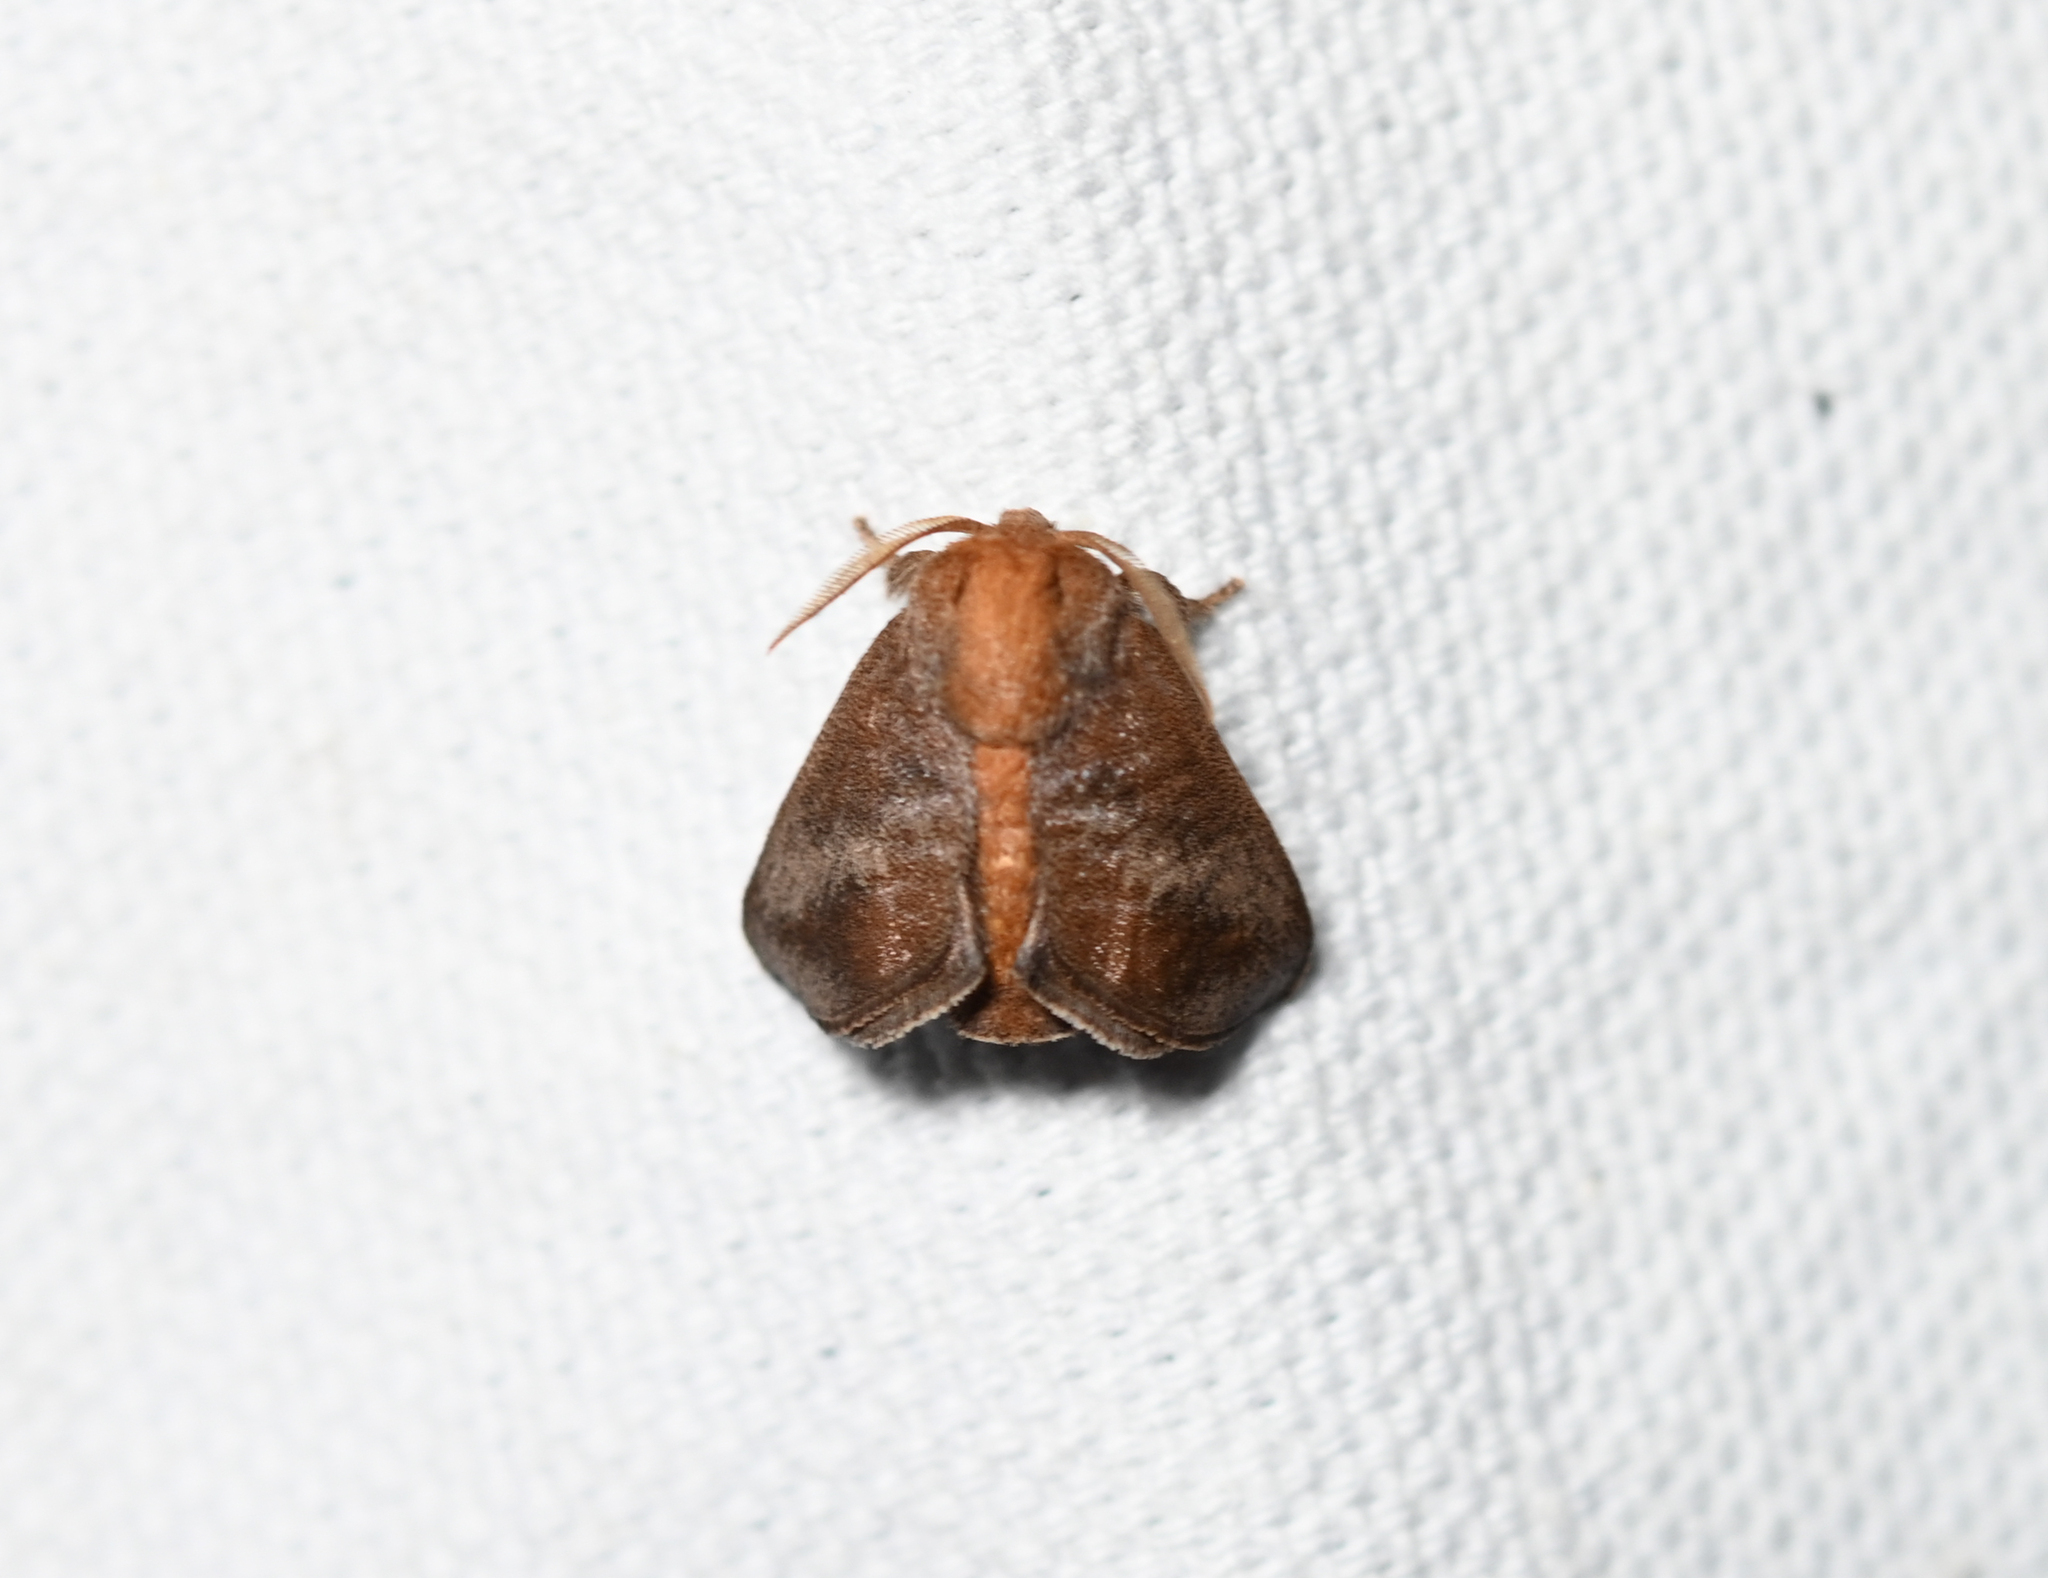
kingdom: Animalia
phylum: Arthropoda
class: Insecta
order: Lepidoptera
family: Limacodidae
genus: Isa
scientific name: Isa textula
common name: Crowned slug moth
